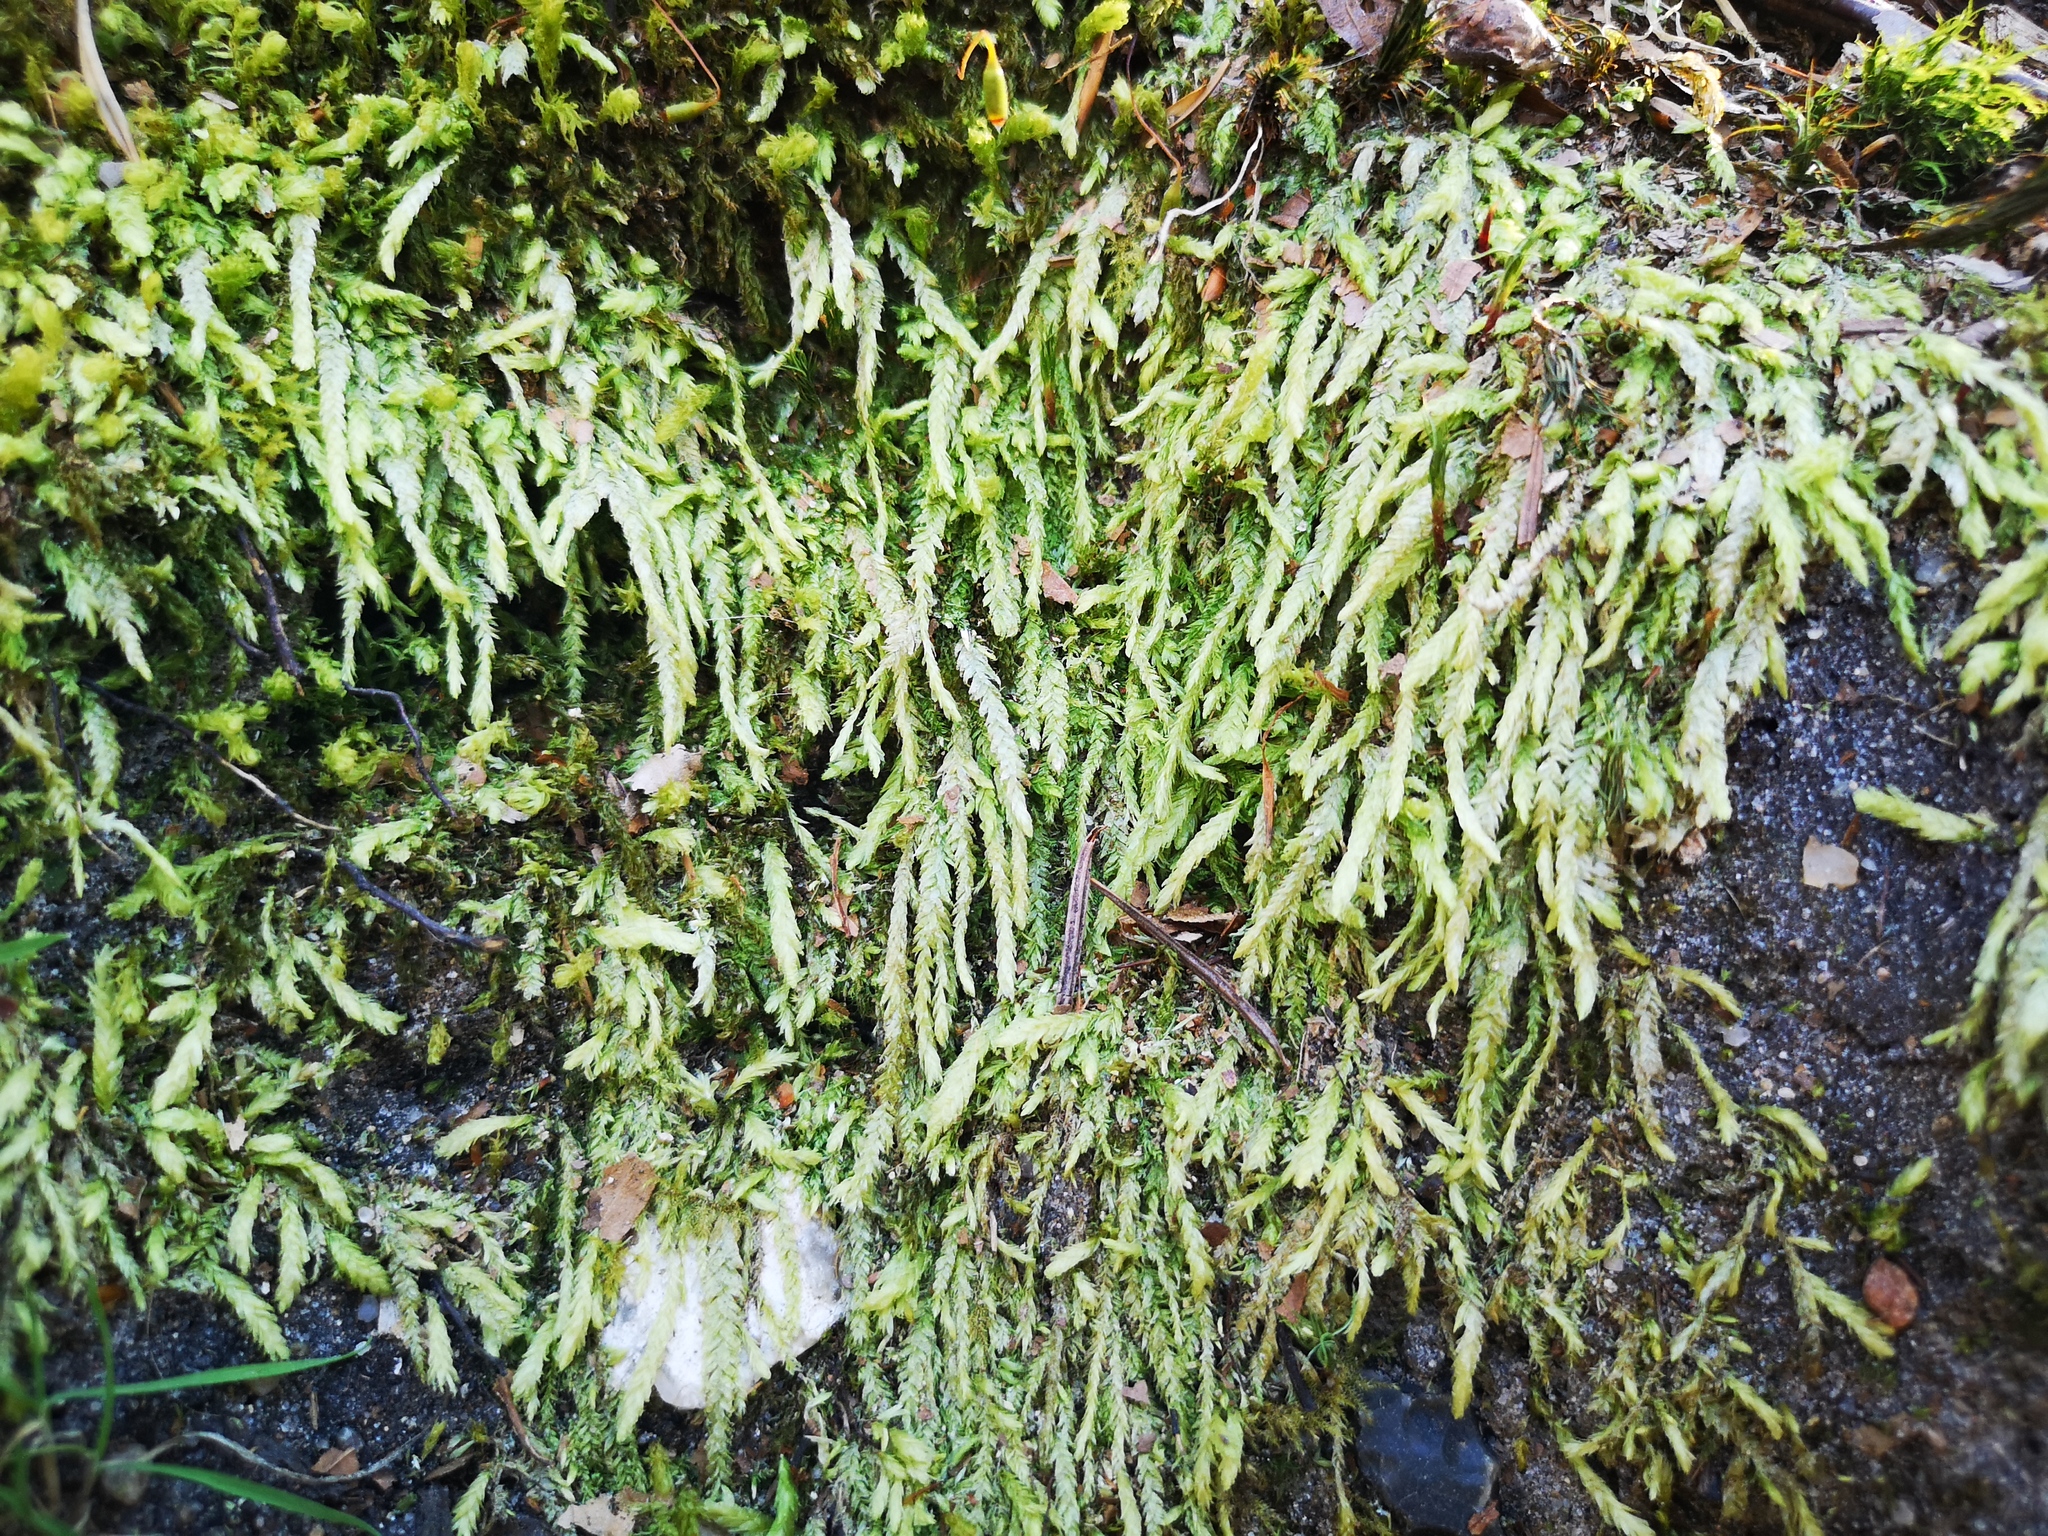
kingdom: Plantae
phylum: Bryophyta
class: Bryopsida
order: Hypnales
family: Plagiotheciaceae
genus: Plagiothecium
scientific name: Plagiothecium undulatum
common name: Waved silk-moss
